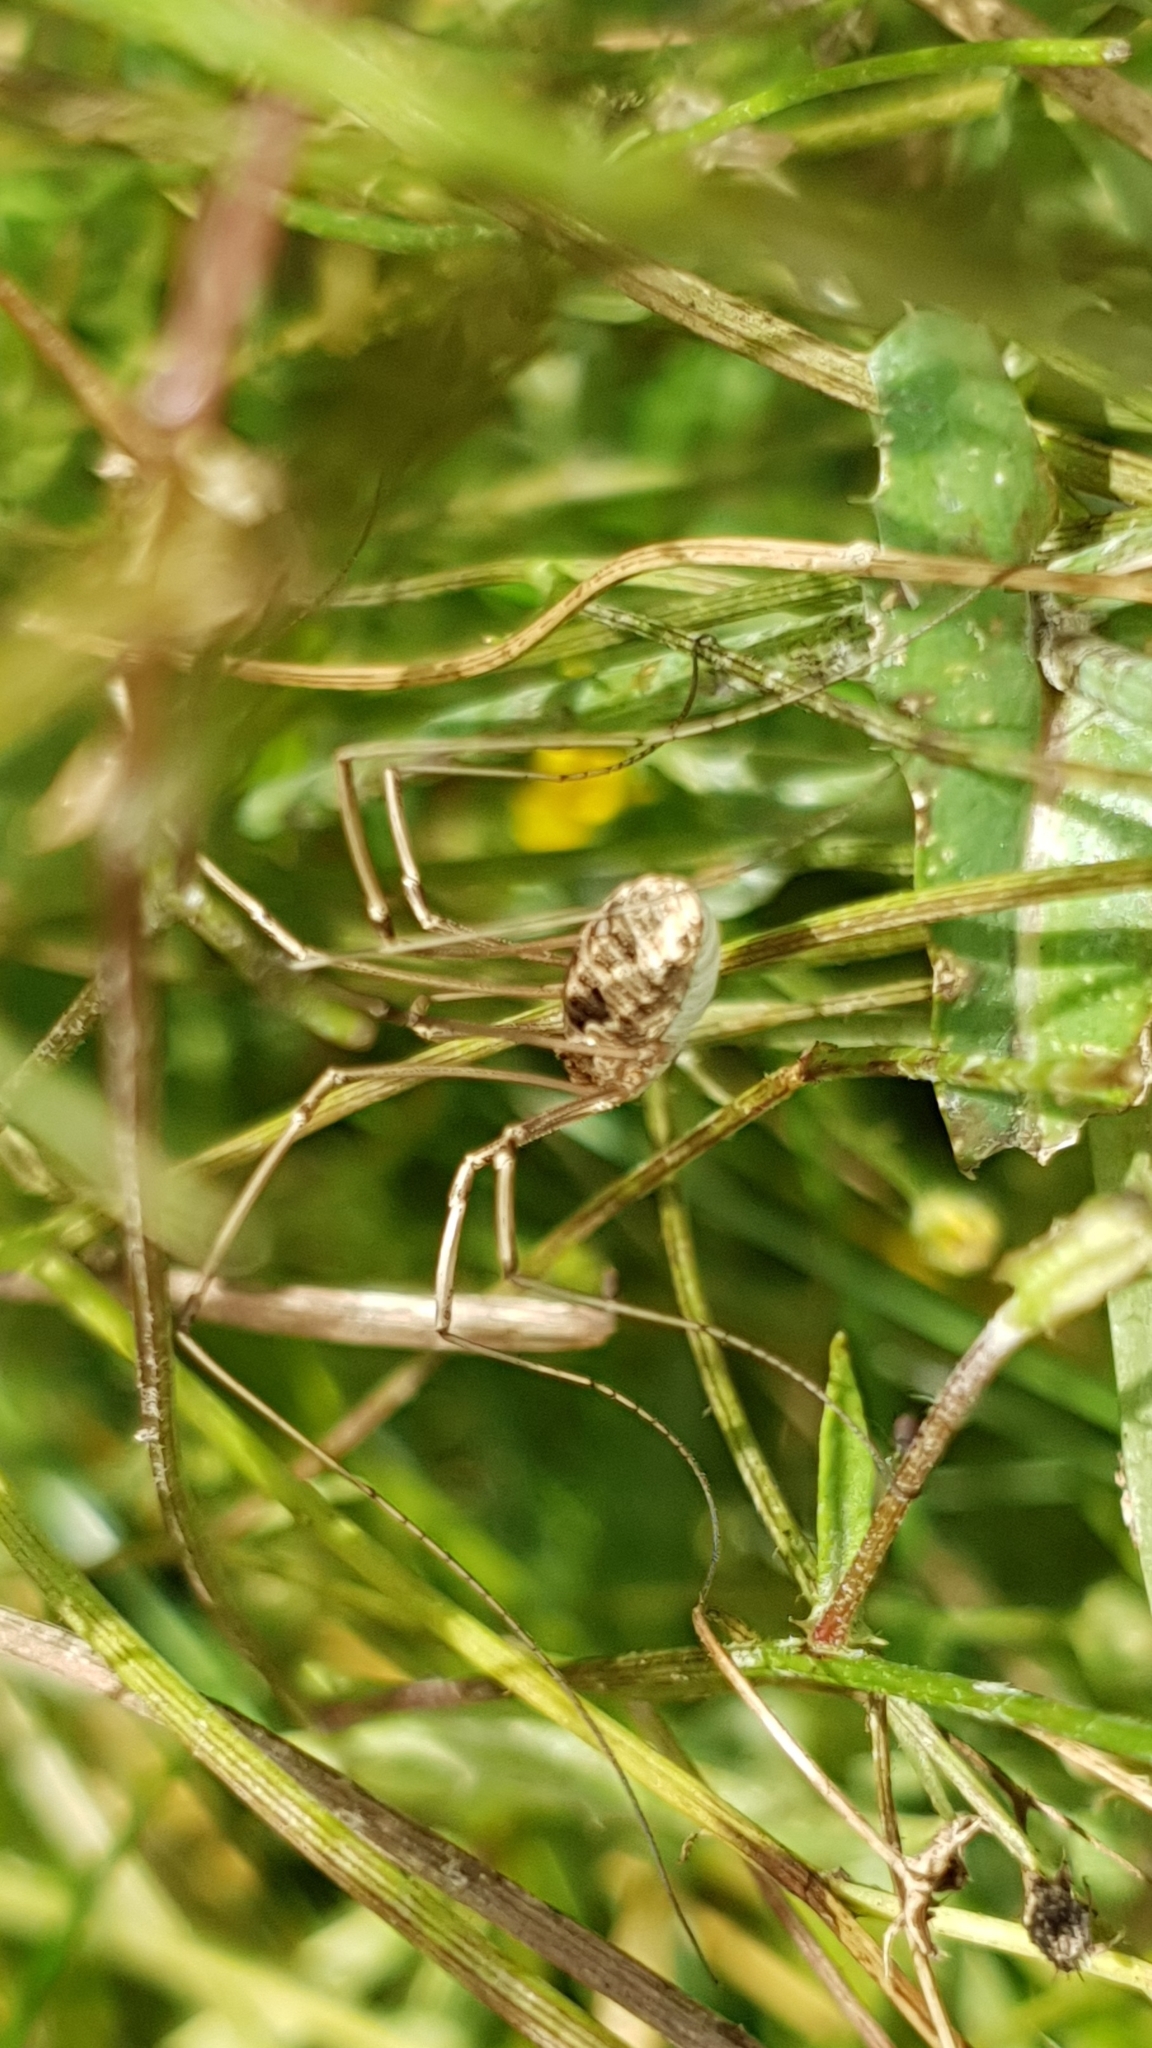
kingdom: Animalia
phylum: Arthropoda
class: Arachnida
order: Opiliones
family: Phalangiidae
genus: Phalangium
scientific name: Phalangium opilio
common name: Daddy longleg
